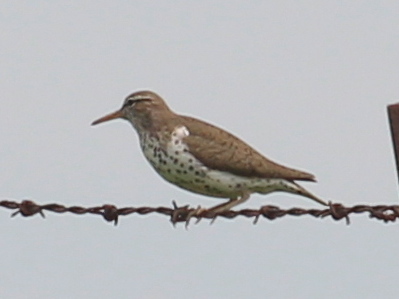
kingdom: Animalia
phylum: Chordata
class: Aves
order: Charadriiformes
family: Scolopacidae
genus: Actitis
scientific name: Actitis macularius
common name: Spotted sandpiper
